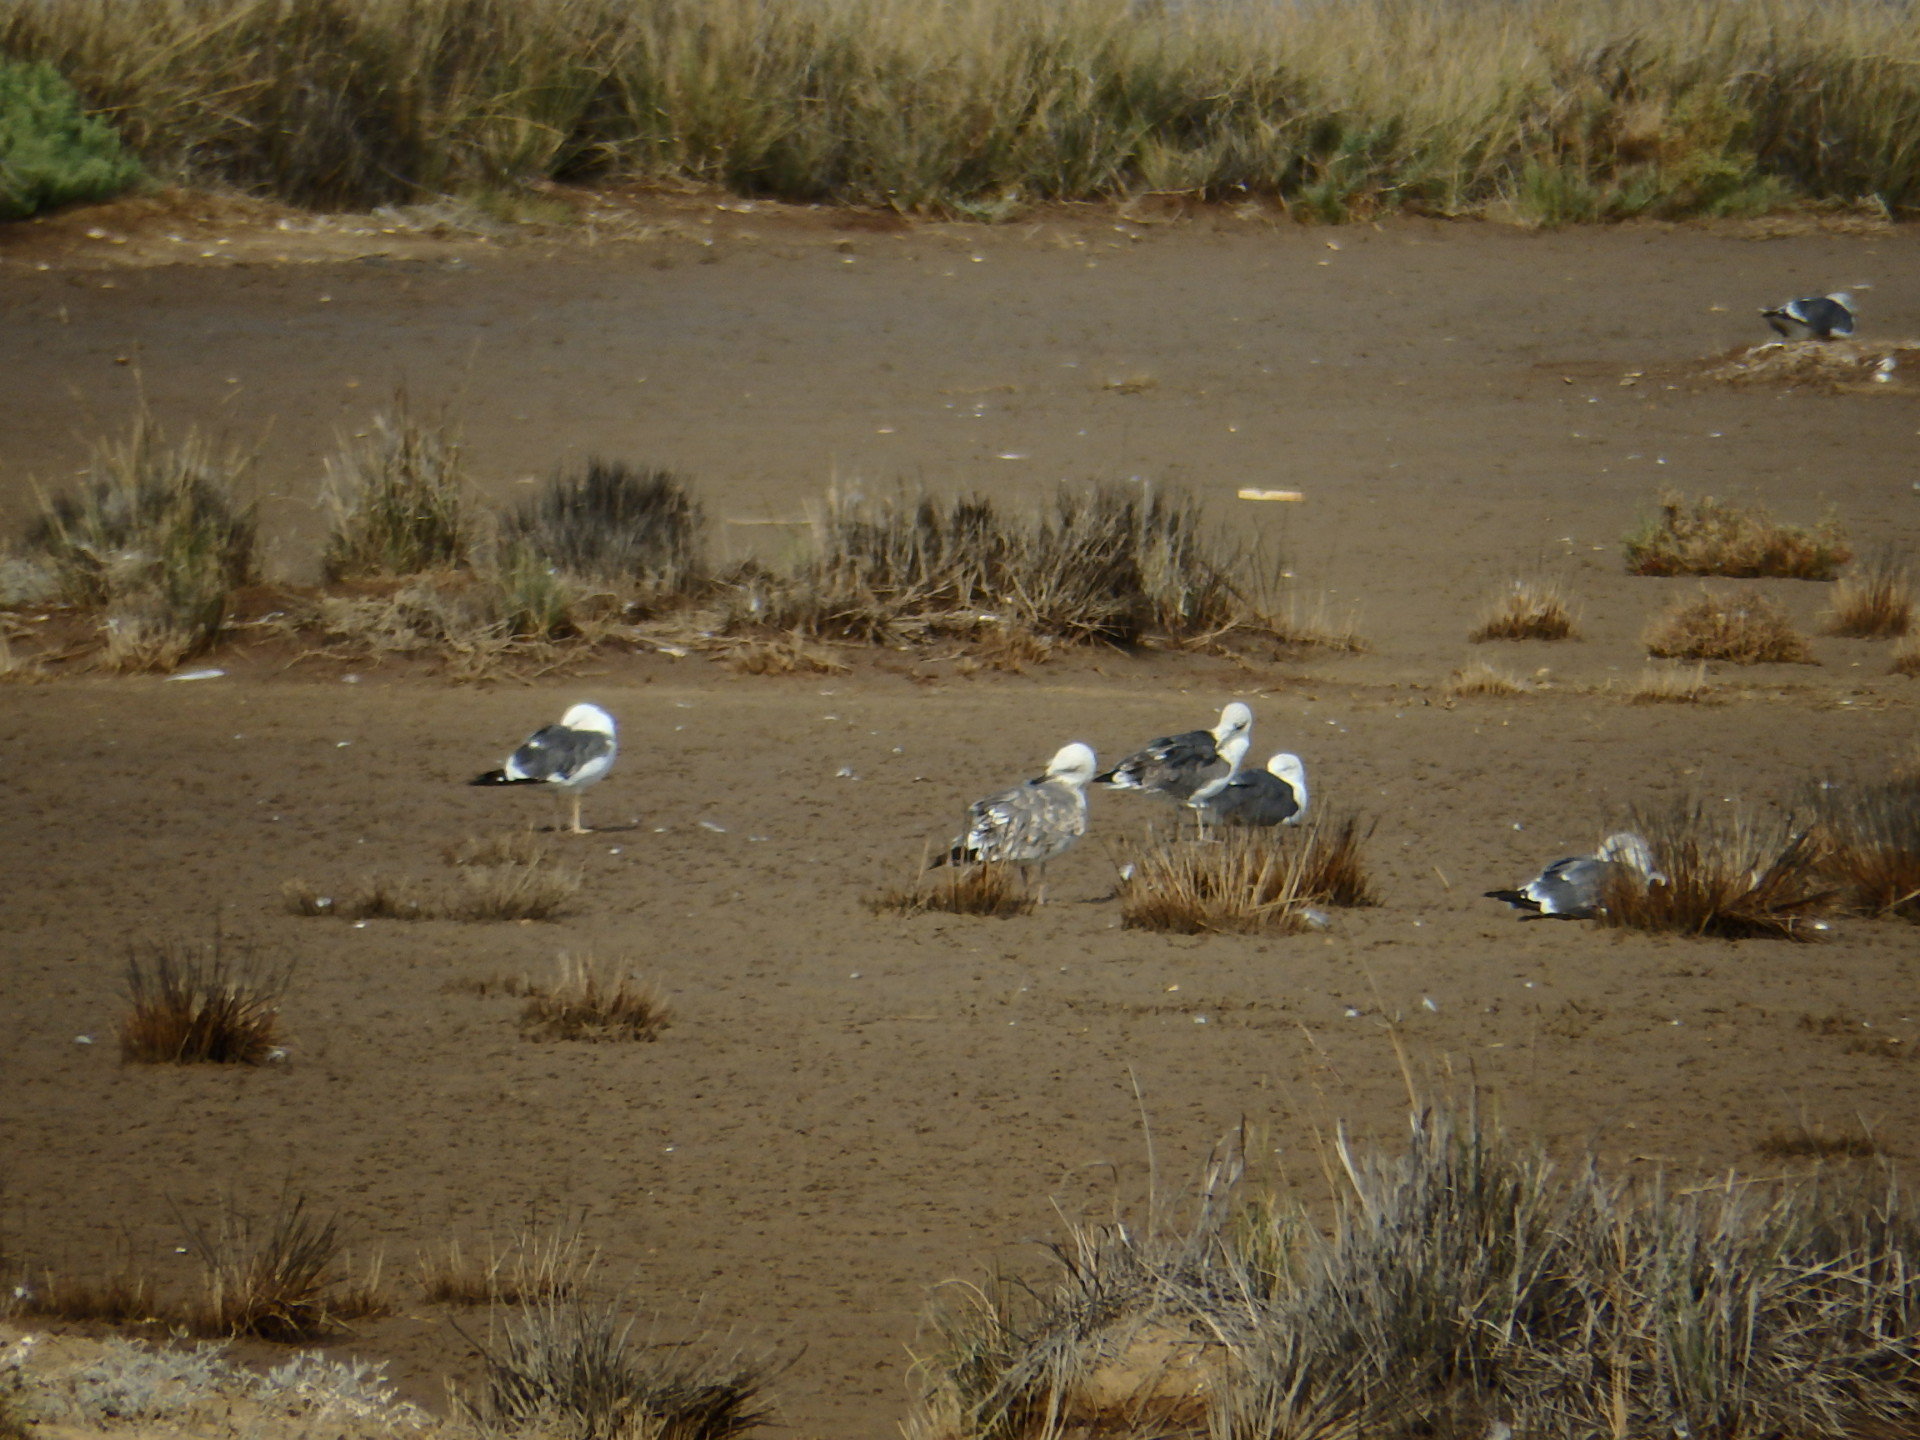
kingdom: Animalia
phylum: Chordata
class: Aves
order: Charadriiformes
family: Laridae
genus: Larus
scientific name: Larus fuscus
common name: Lesser black-backed gull
